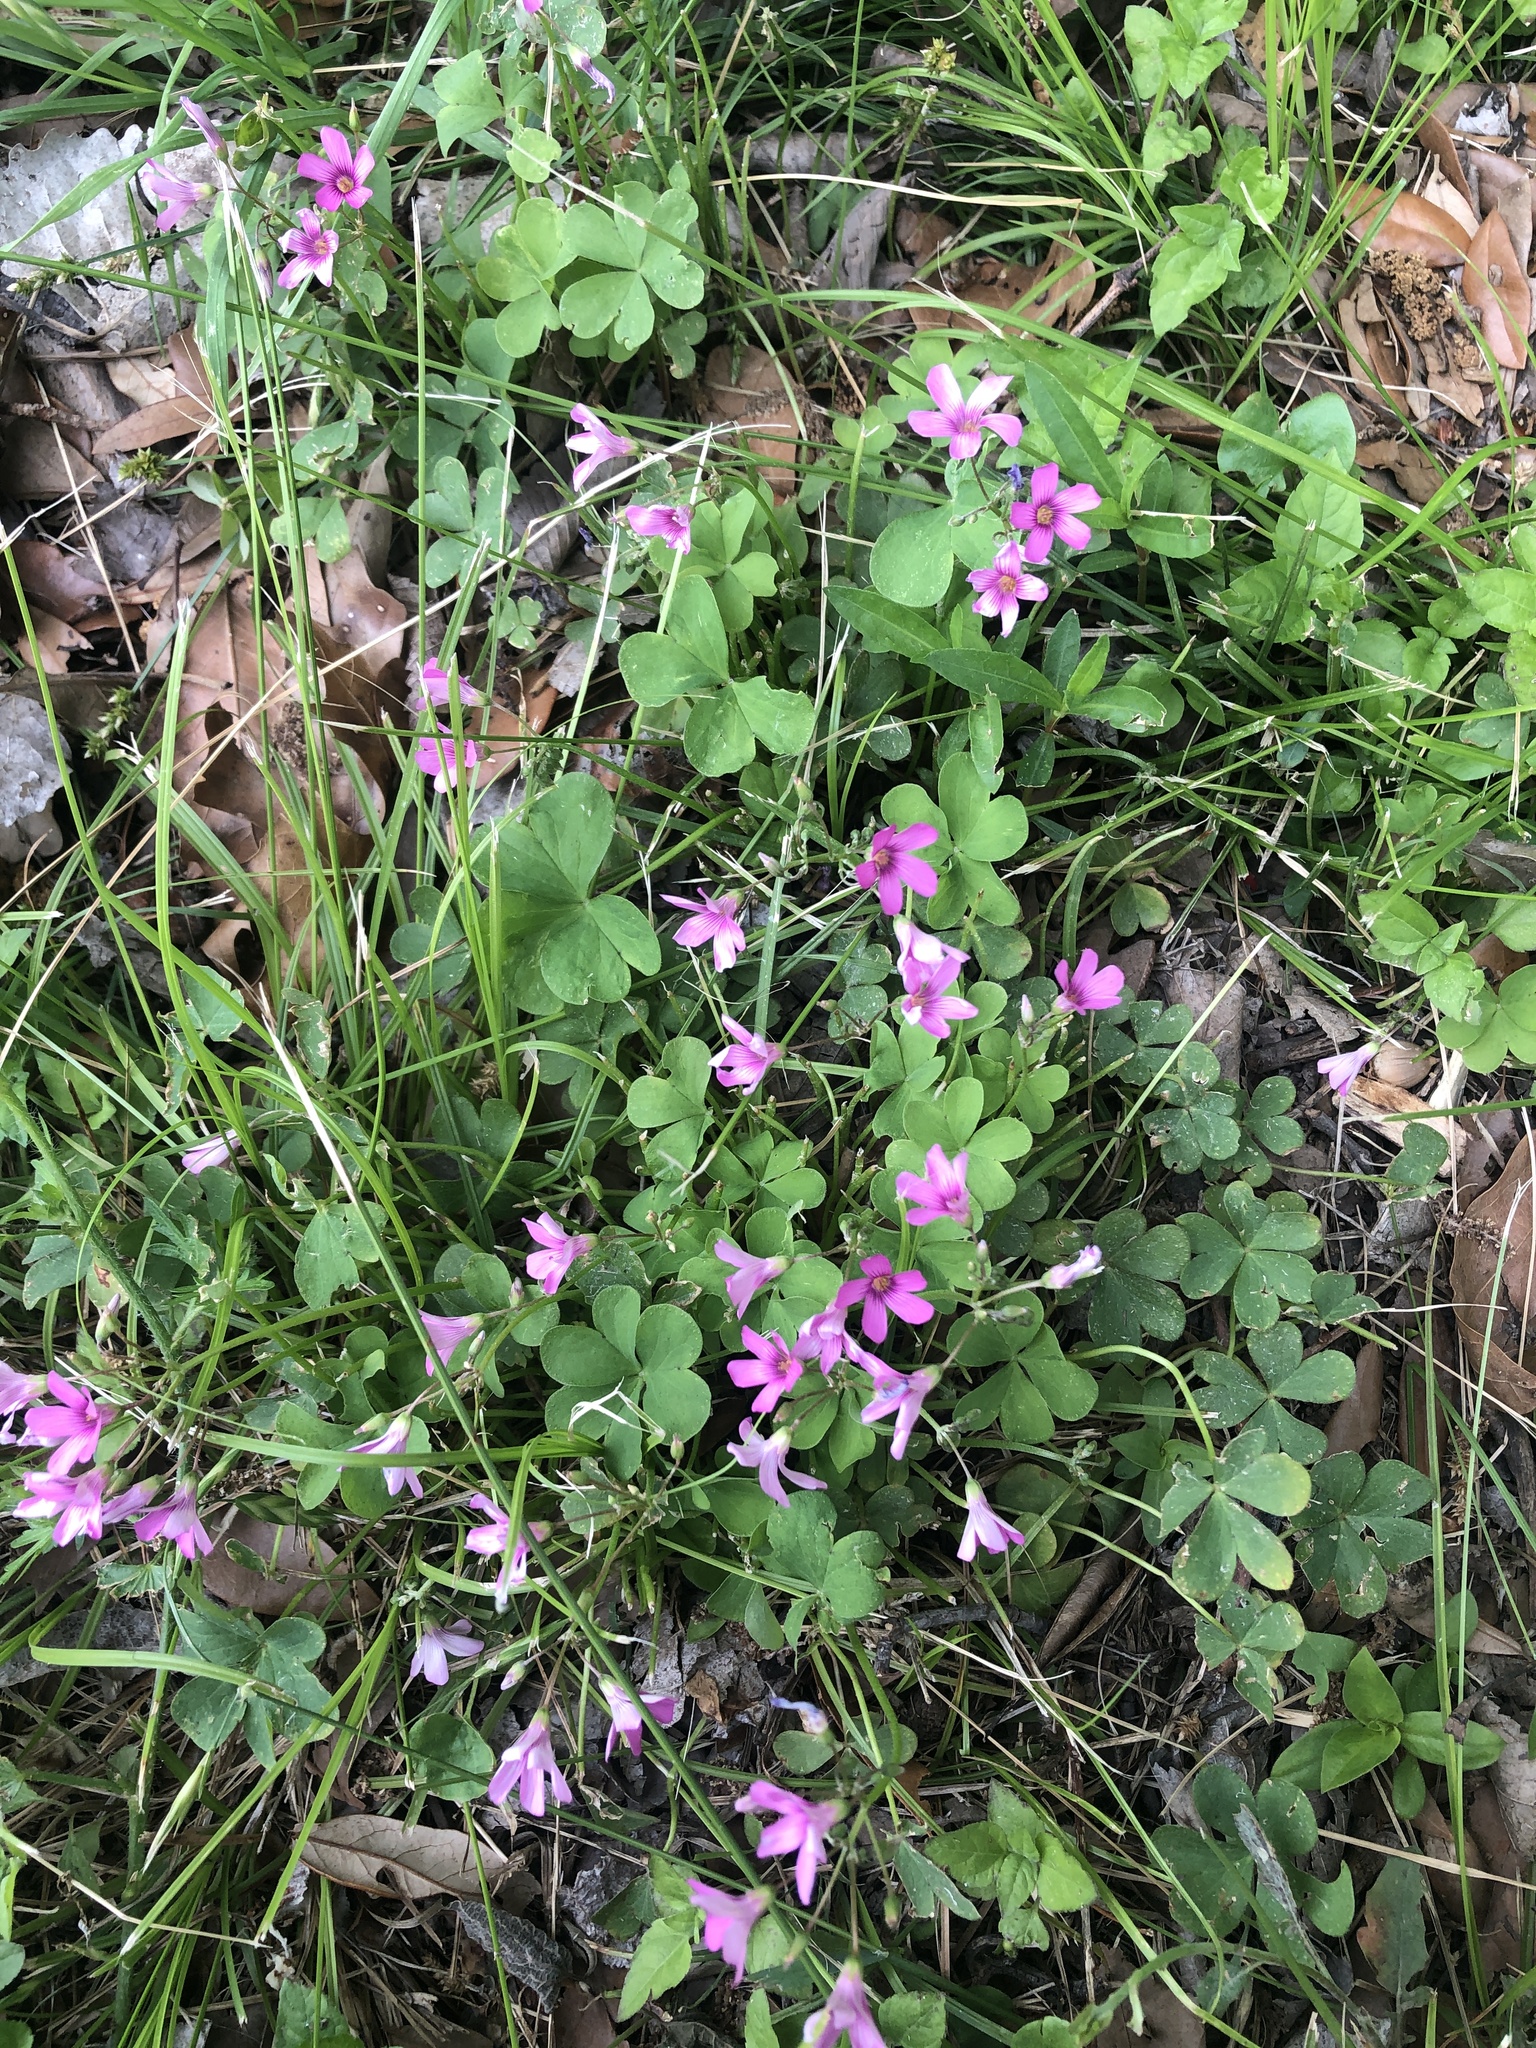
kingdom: Plantae
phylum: Tracheophyta
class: Magnoliopsida
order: Oxalidales
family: Oxalidaceae
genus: Oxalis
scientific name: Oxalis articulata
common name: Pink-sorrel
